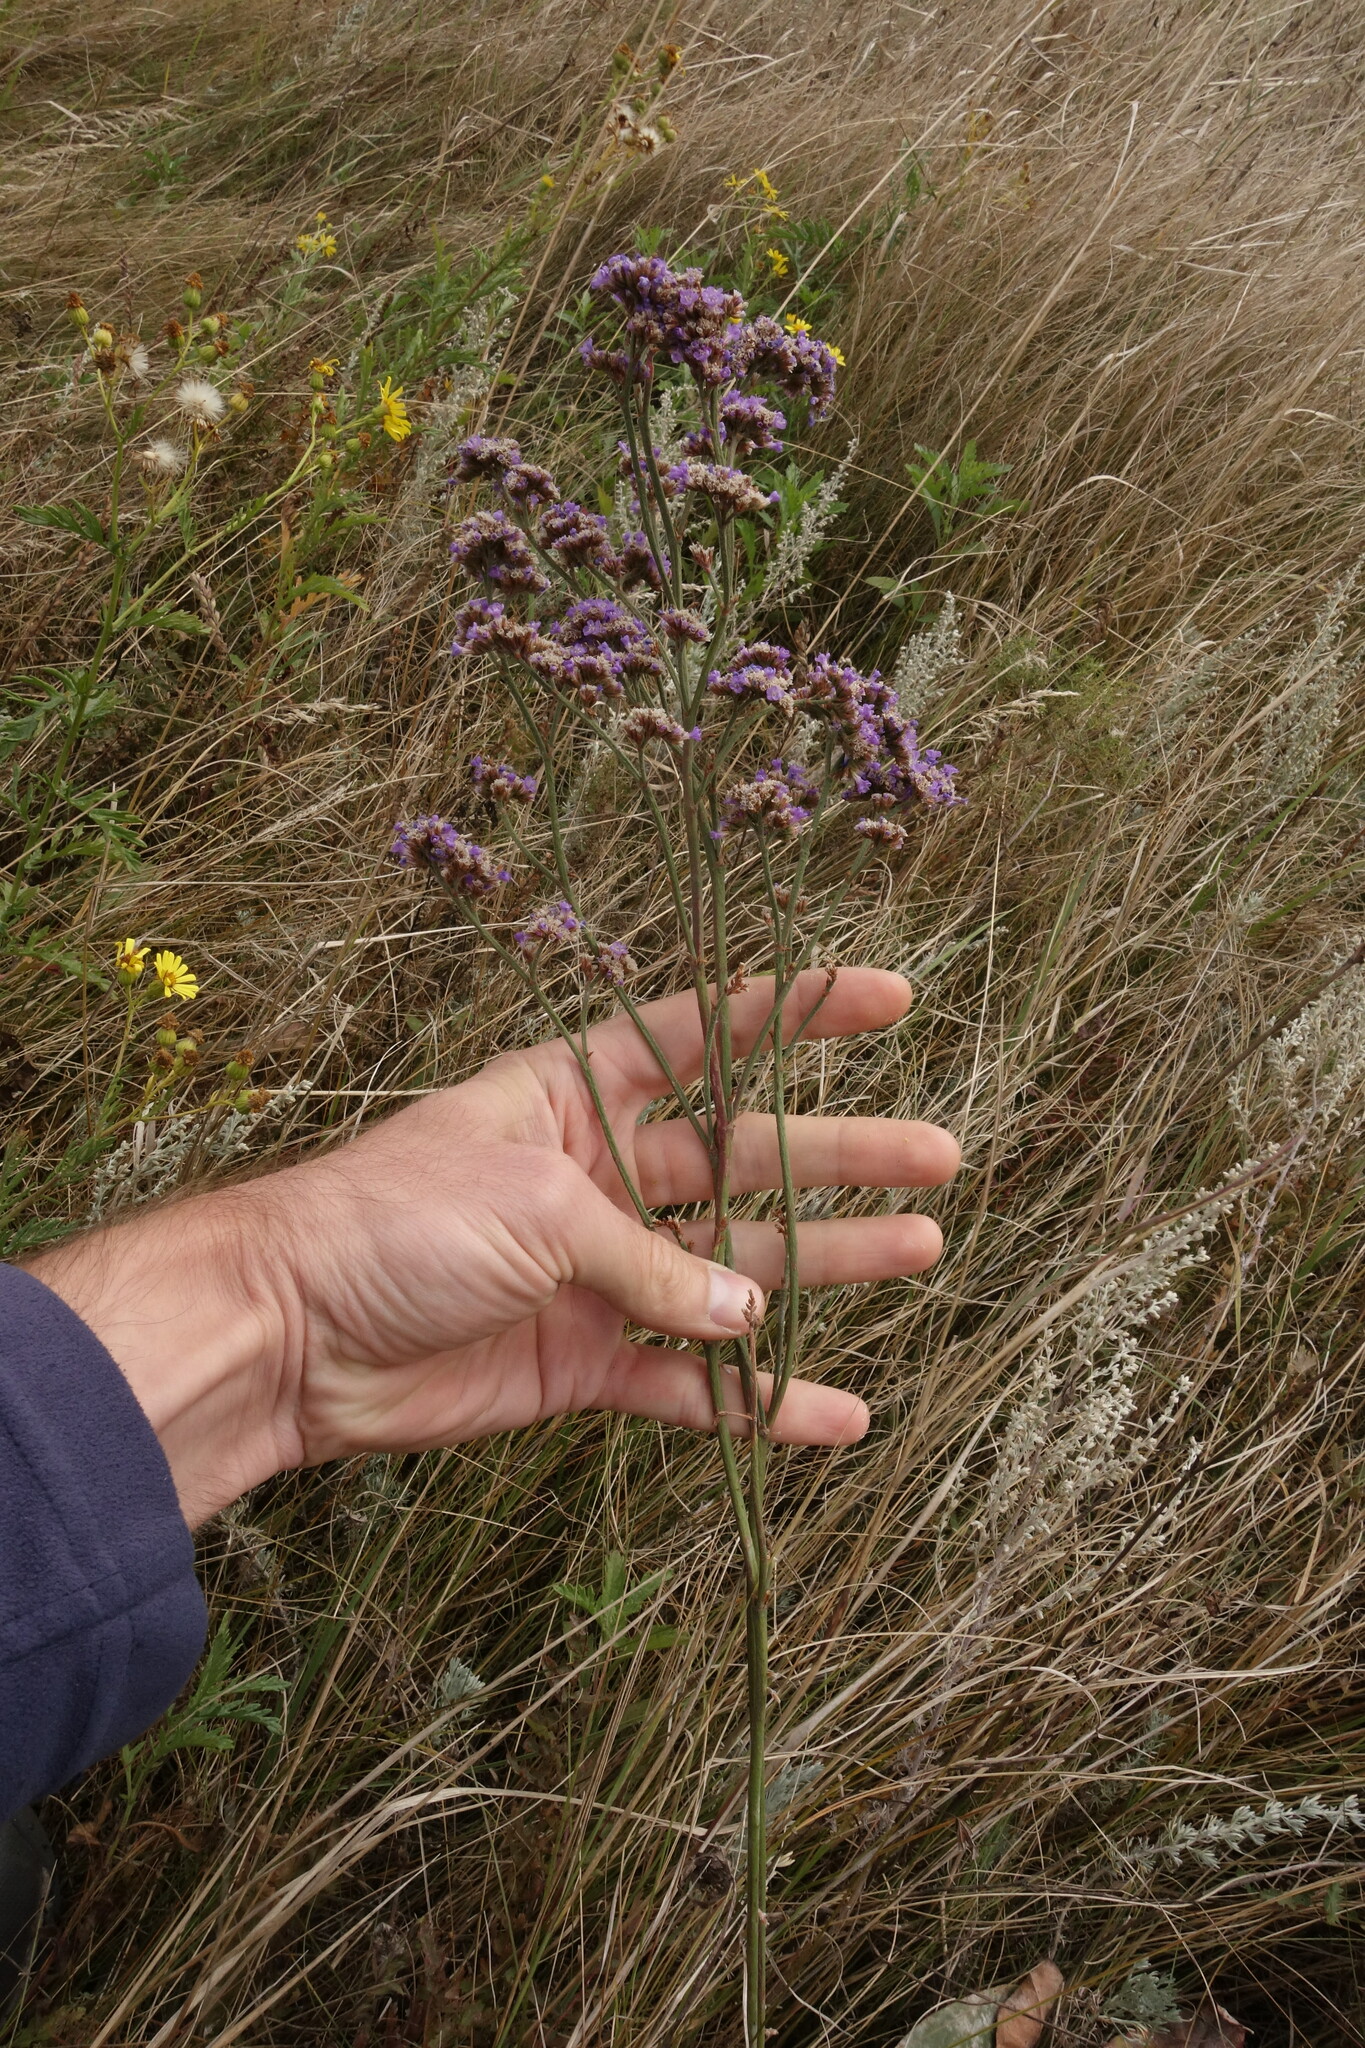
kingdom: Plantae
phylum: Tracheophyta
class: Magnoliopsida
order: Caryophyllales
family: Plumbaginaceae
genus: Limonium
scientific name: Limonium tomentellum
